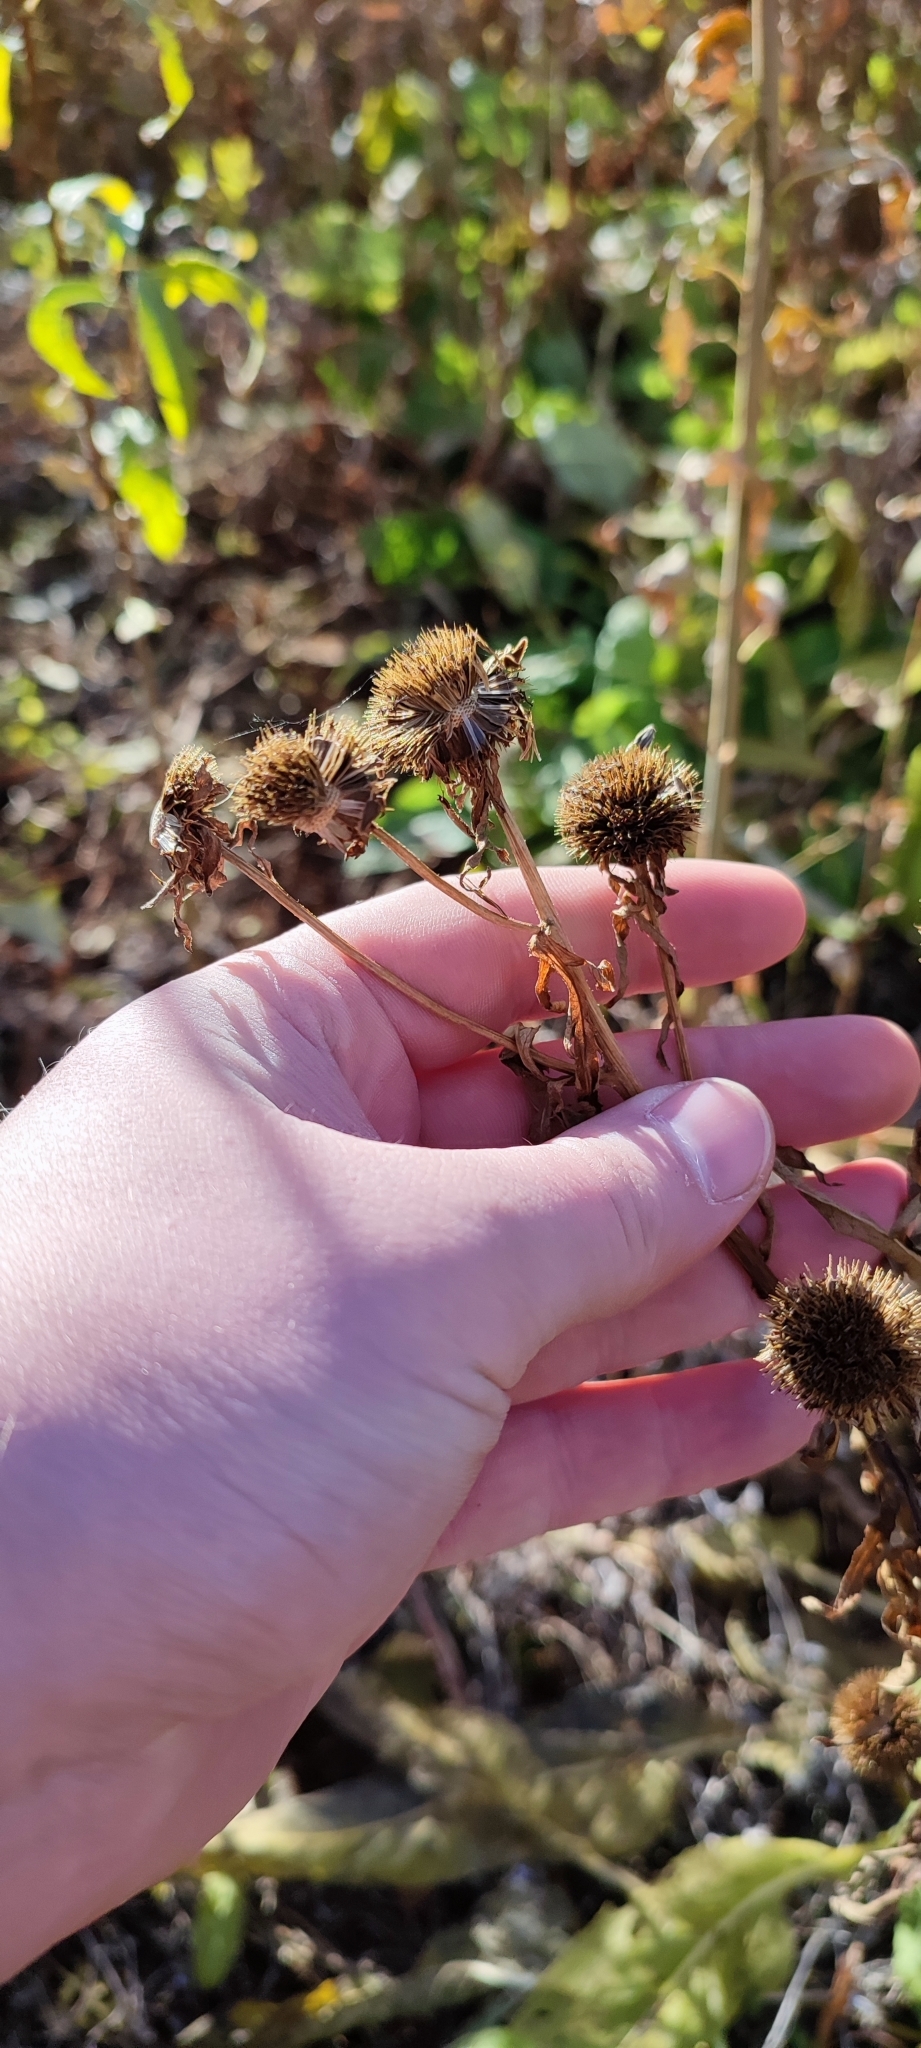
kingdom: Plantae
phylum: Tracheophyta
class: Magnoliopsida
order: Asterales
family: Asteraceae
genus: Bidens
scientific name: Bidens radiata
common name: Radiating bur-marigold
